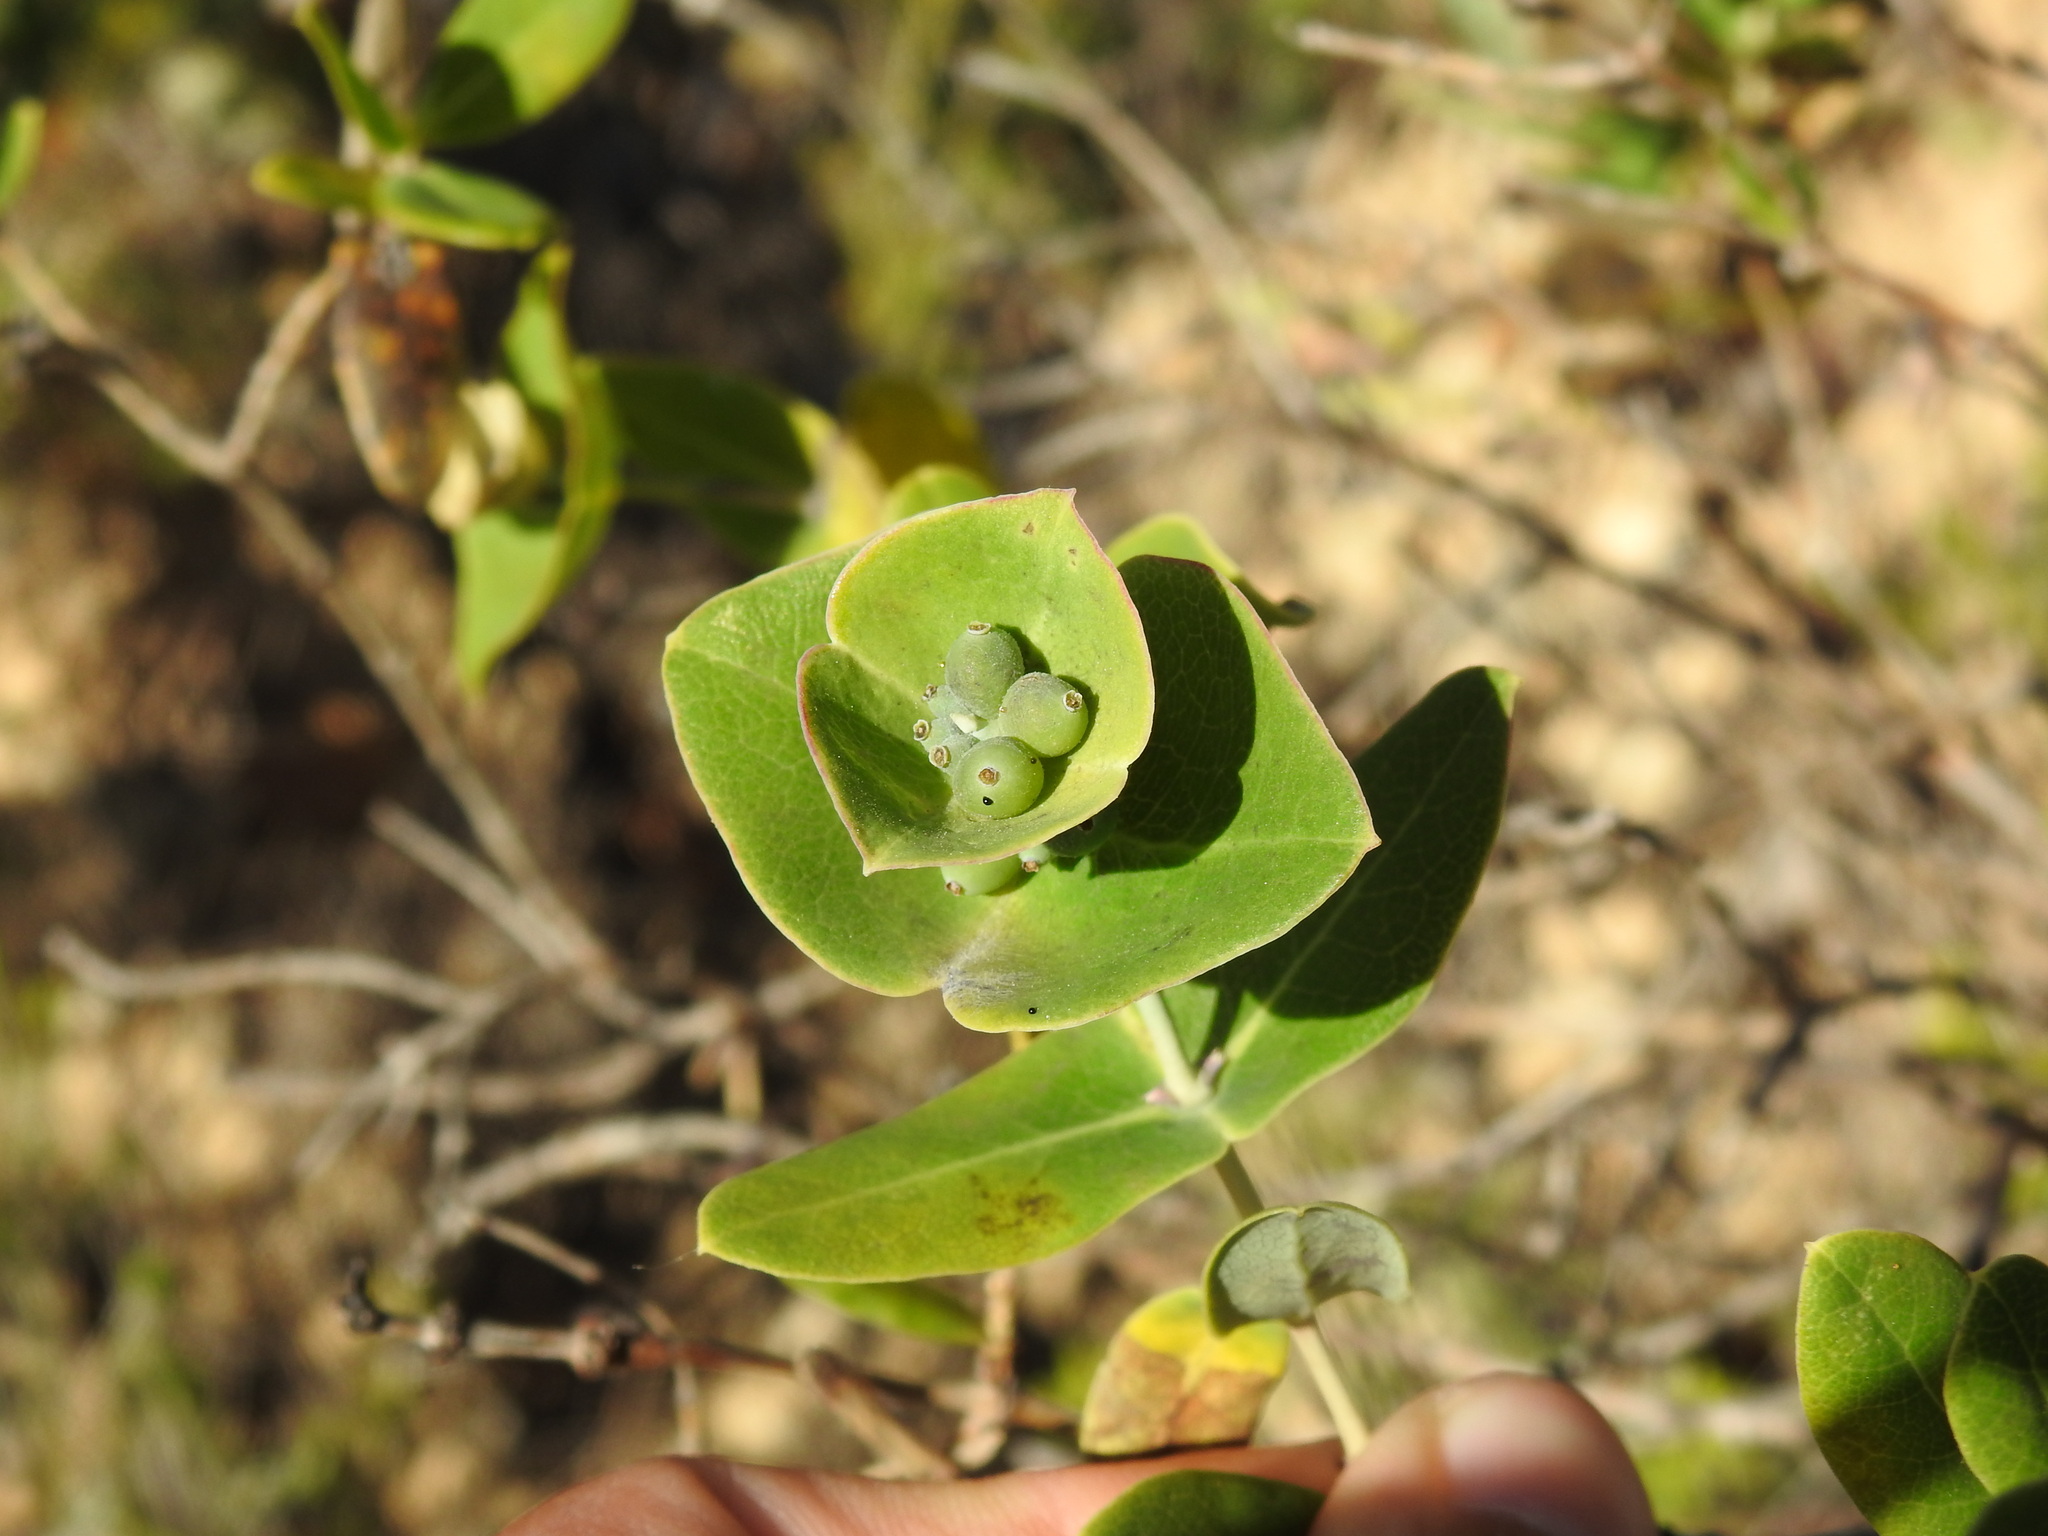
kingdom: Plantae
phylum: Tracheophyta
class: Magnoliopsida
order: Dipsacales
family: Caprifoliaceae
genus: Lonicera
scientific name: Lonicera implexa
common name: Minorca honeysuckle
